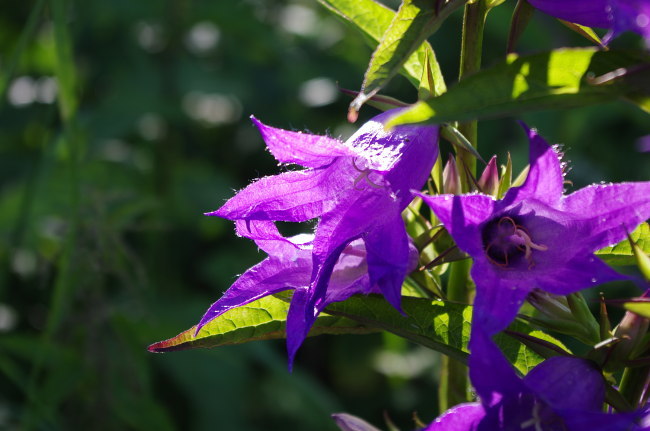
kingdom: Plantae
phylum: Tracheophyta
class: Magnoliopsida
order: Asterales
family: Campanulaceae
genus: Campanula
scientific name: Campanula latifolia
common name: Giant bellflower
